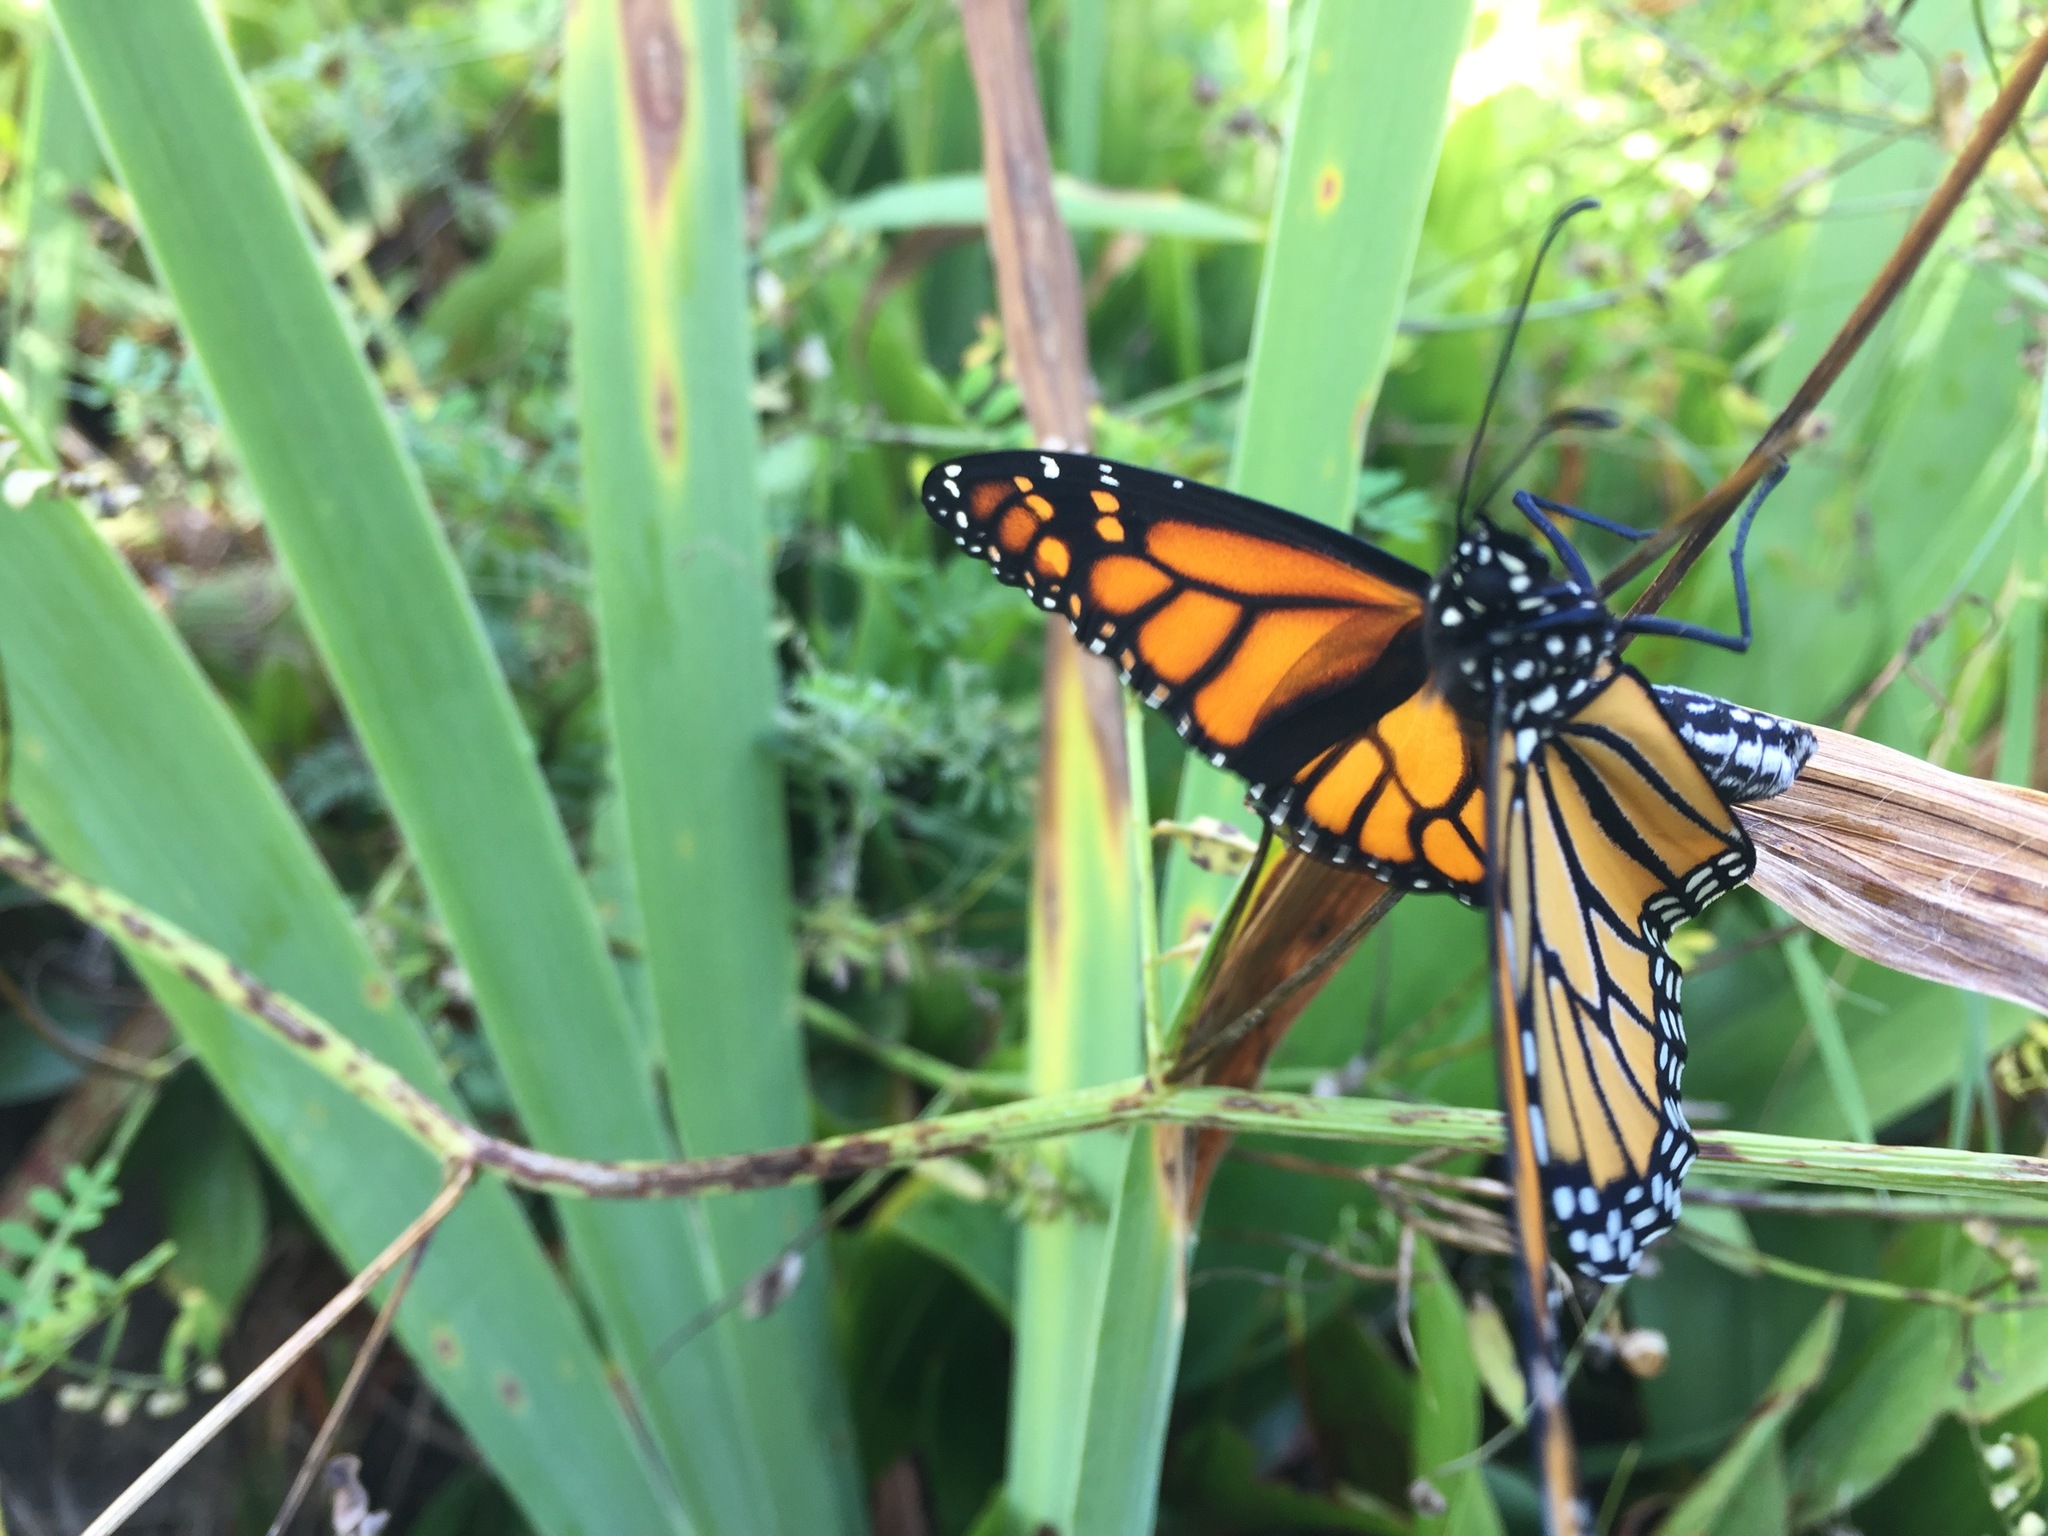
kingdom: Animalia
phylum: Arthropoda
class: Insecta
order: Lepidoptera
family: Nymphalidae
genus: Danaus
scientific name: Danaus plexippus
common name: Monarch
